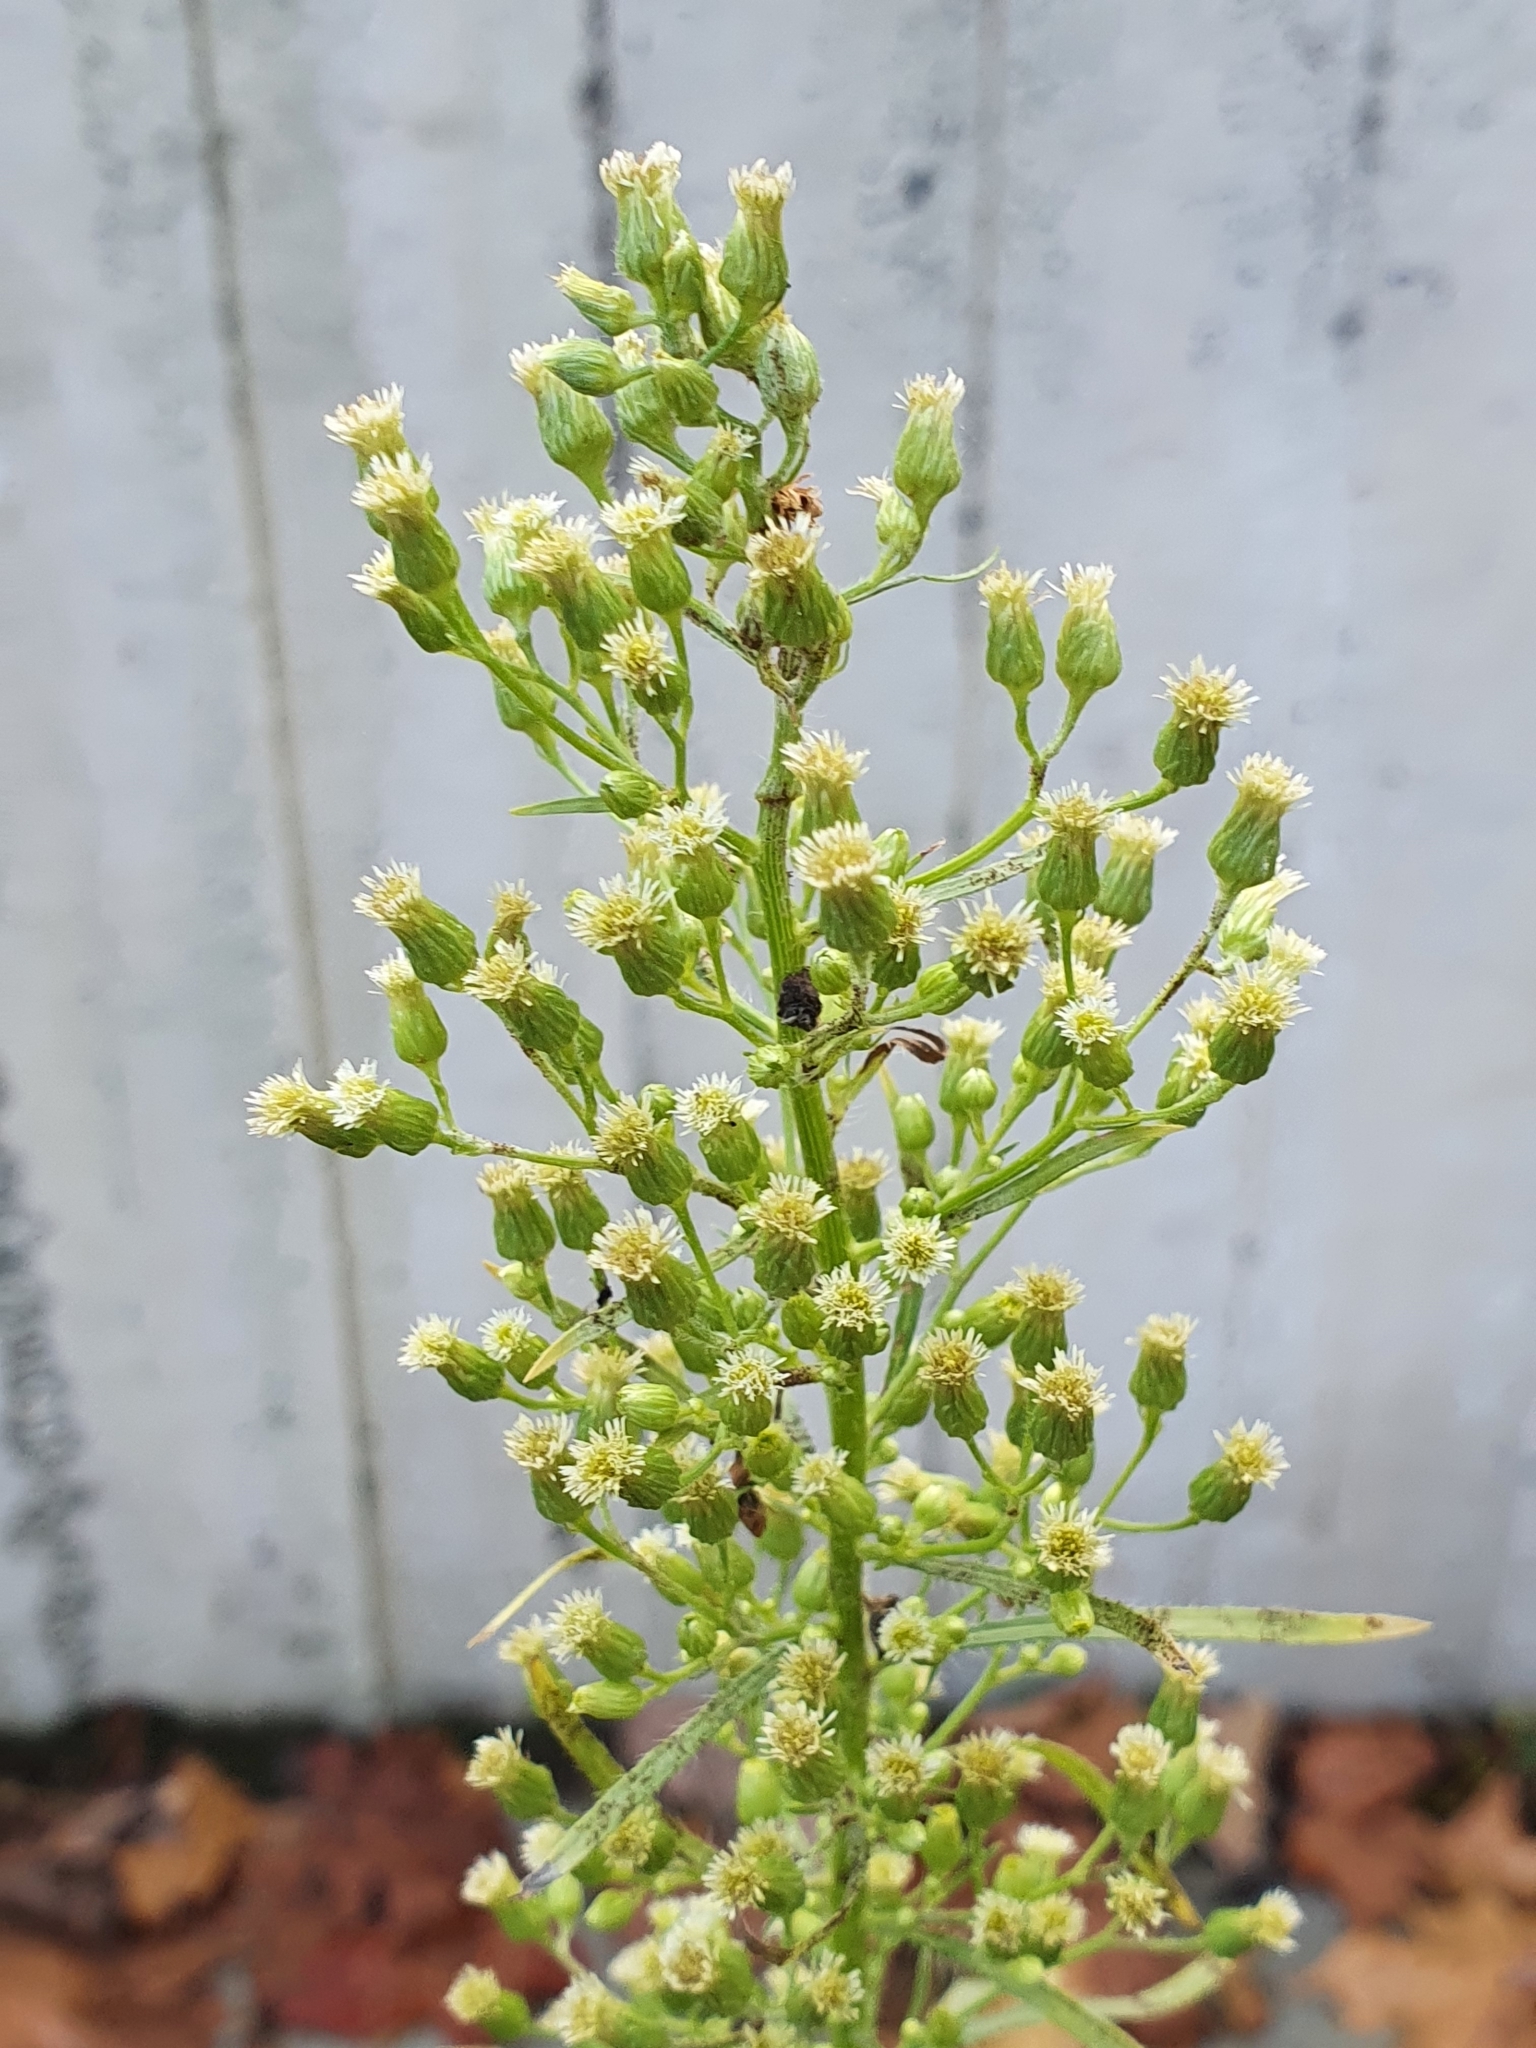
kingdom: Plantae
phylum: Tracheophyta
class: Magnoliopsida
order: Asterales
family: Asteraceae
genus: Erigeron
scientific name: Erigeron canadensis
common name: Canadian fleabane
